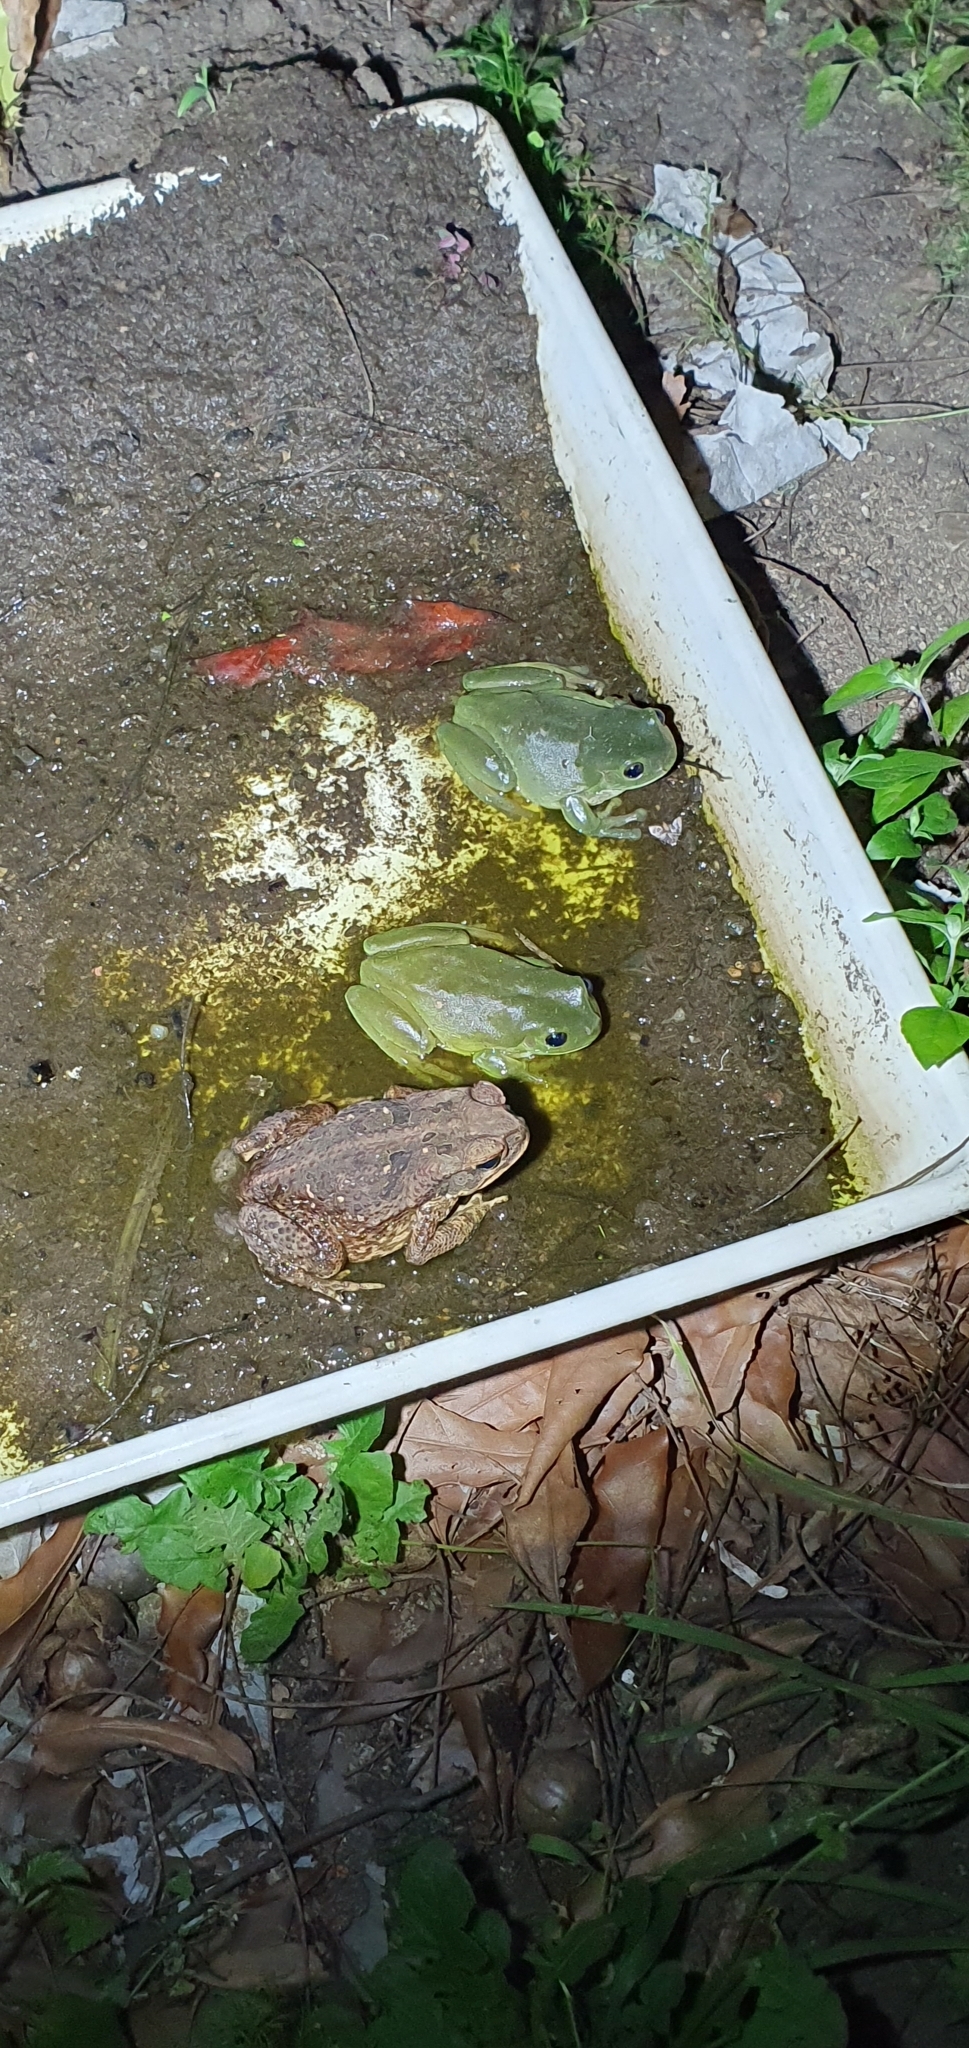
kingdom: Animalia
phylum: Chordata
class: Amphibia
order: Anura
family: Bufonidae
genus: Rhinella
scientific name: Rhinella marina
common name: Cane toad
